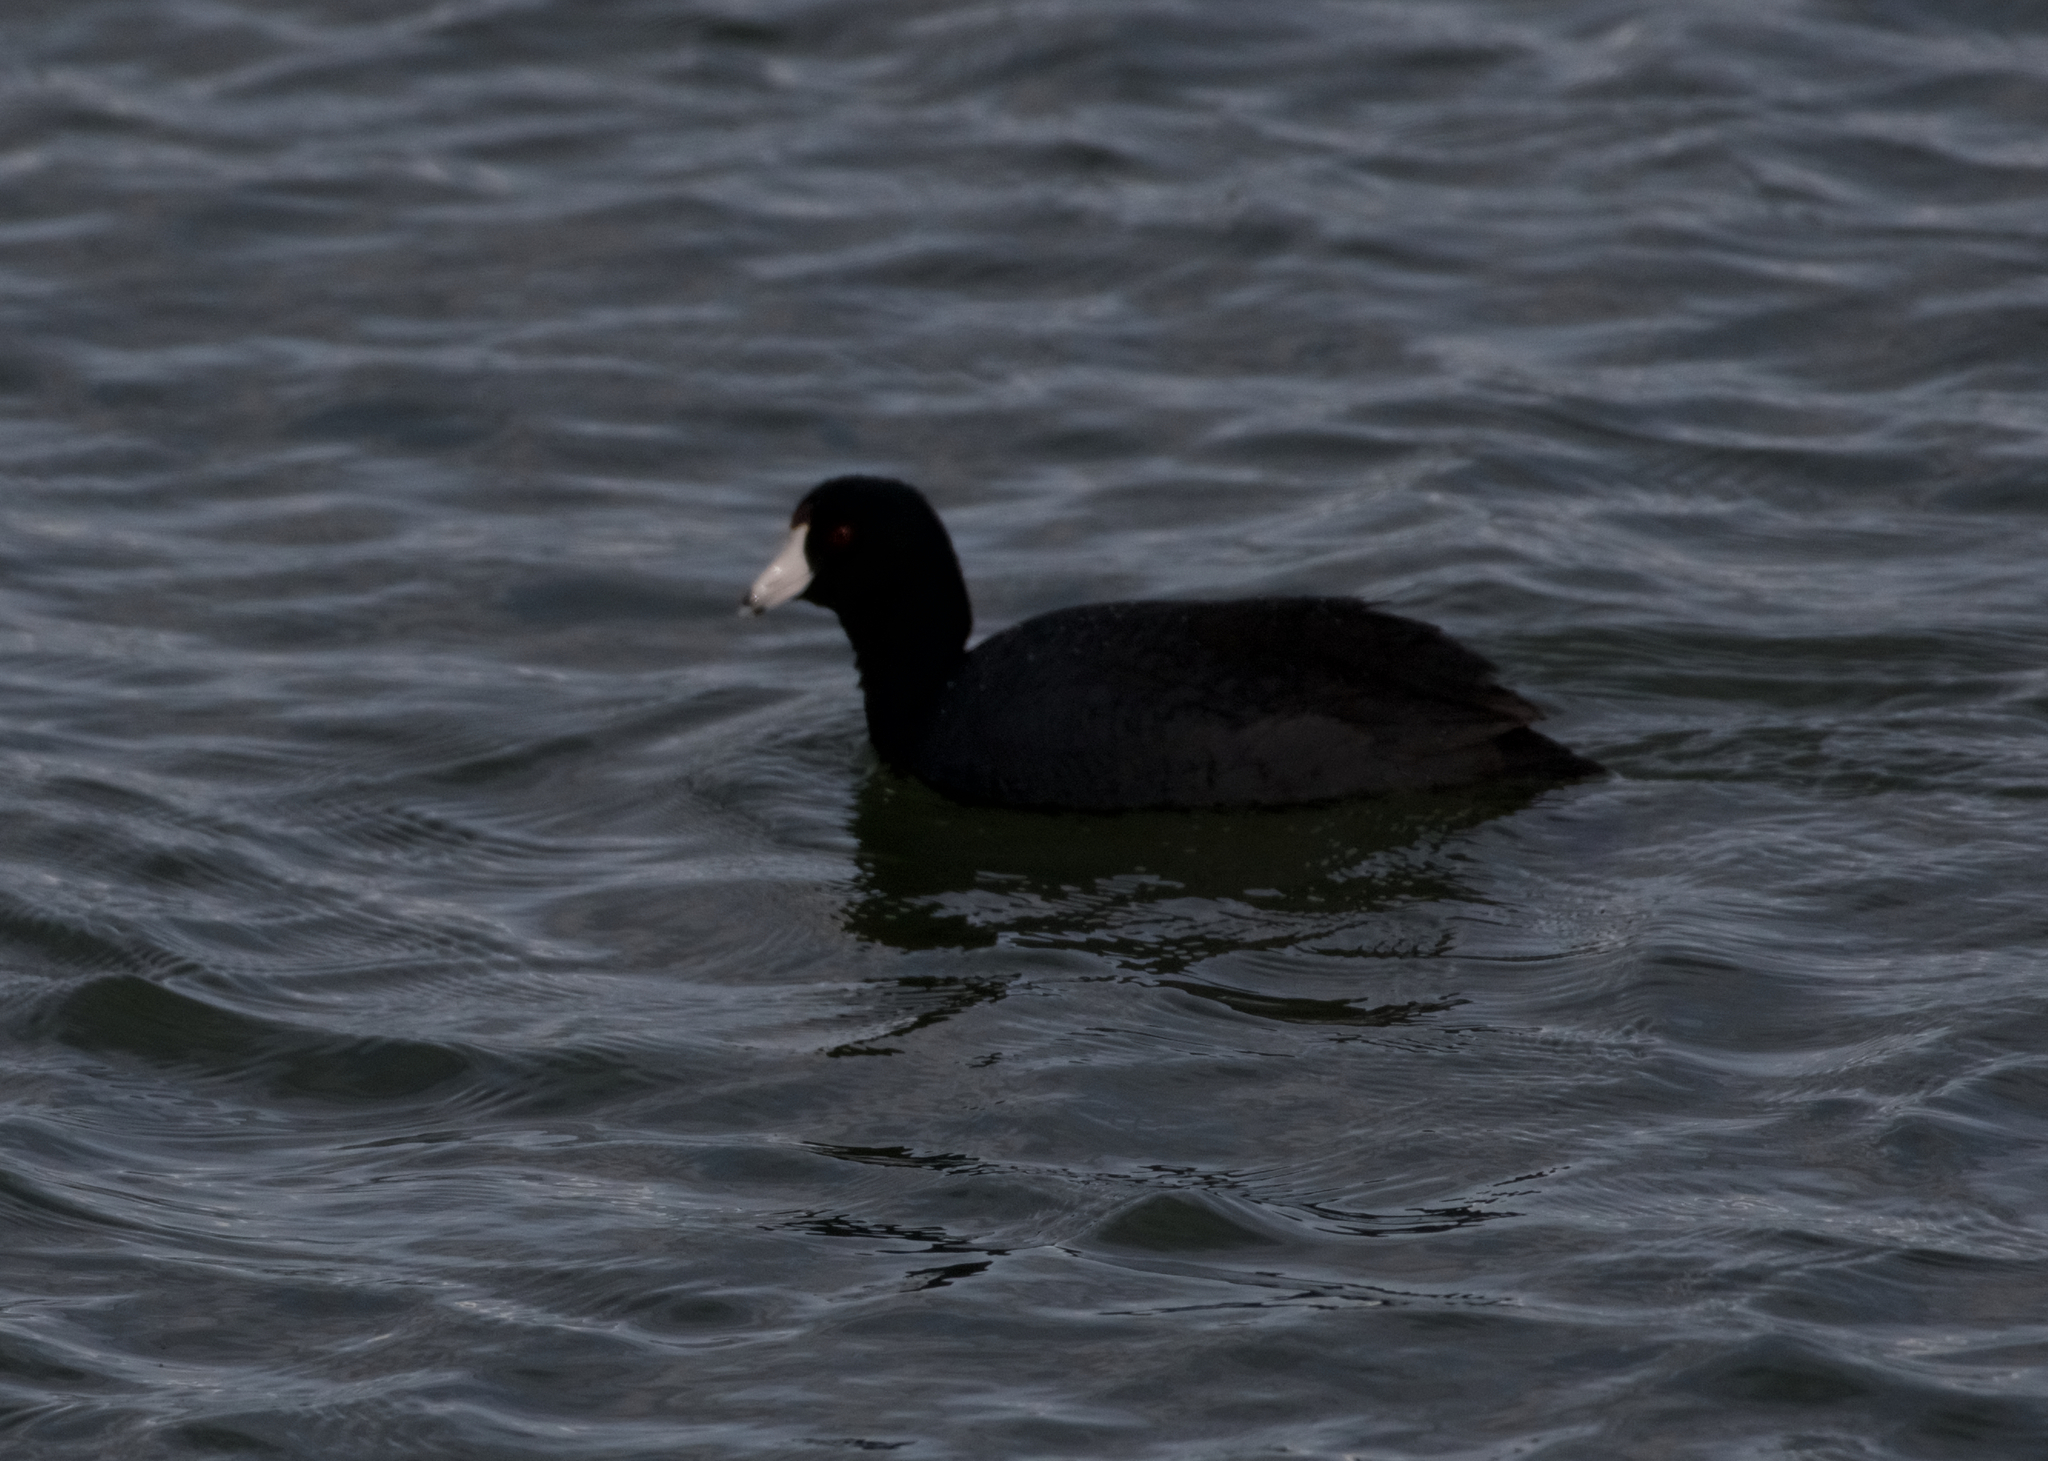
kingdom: Animalia
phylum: Chordata
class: Aves
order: Gruiformes
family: Rallidae
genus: Fulica
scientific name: Fulica americana
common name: American coot
